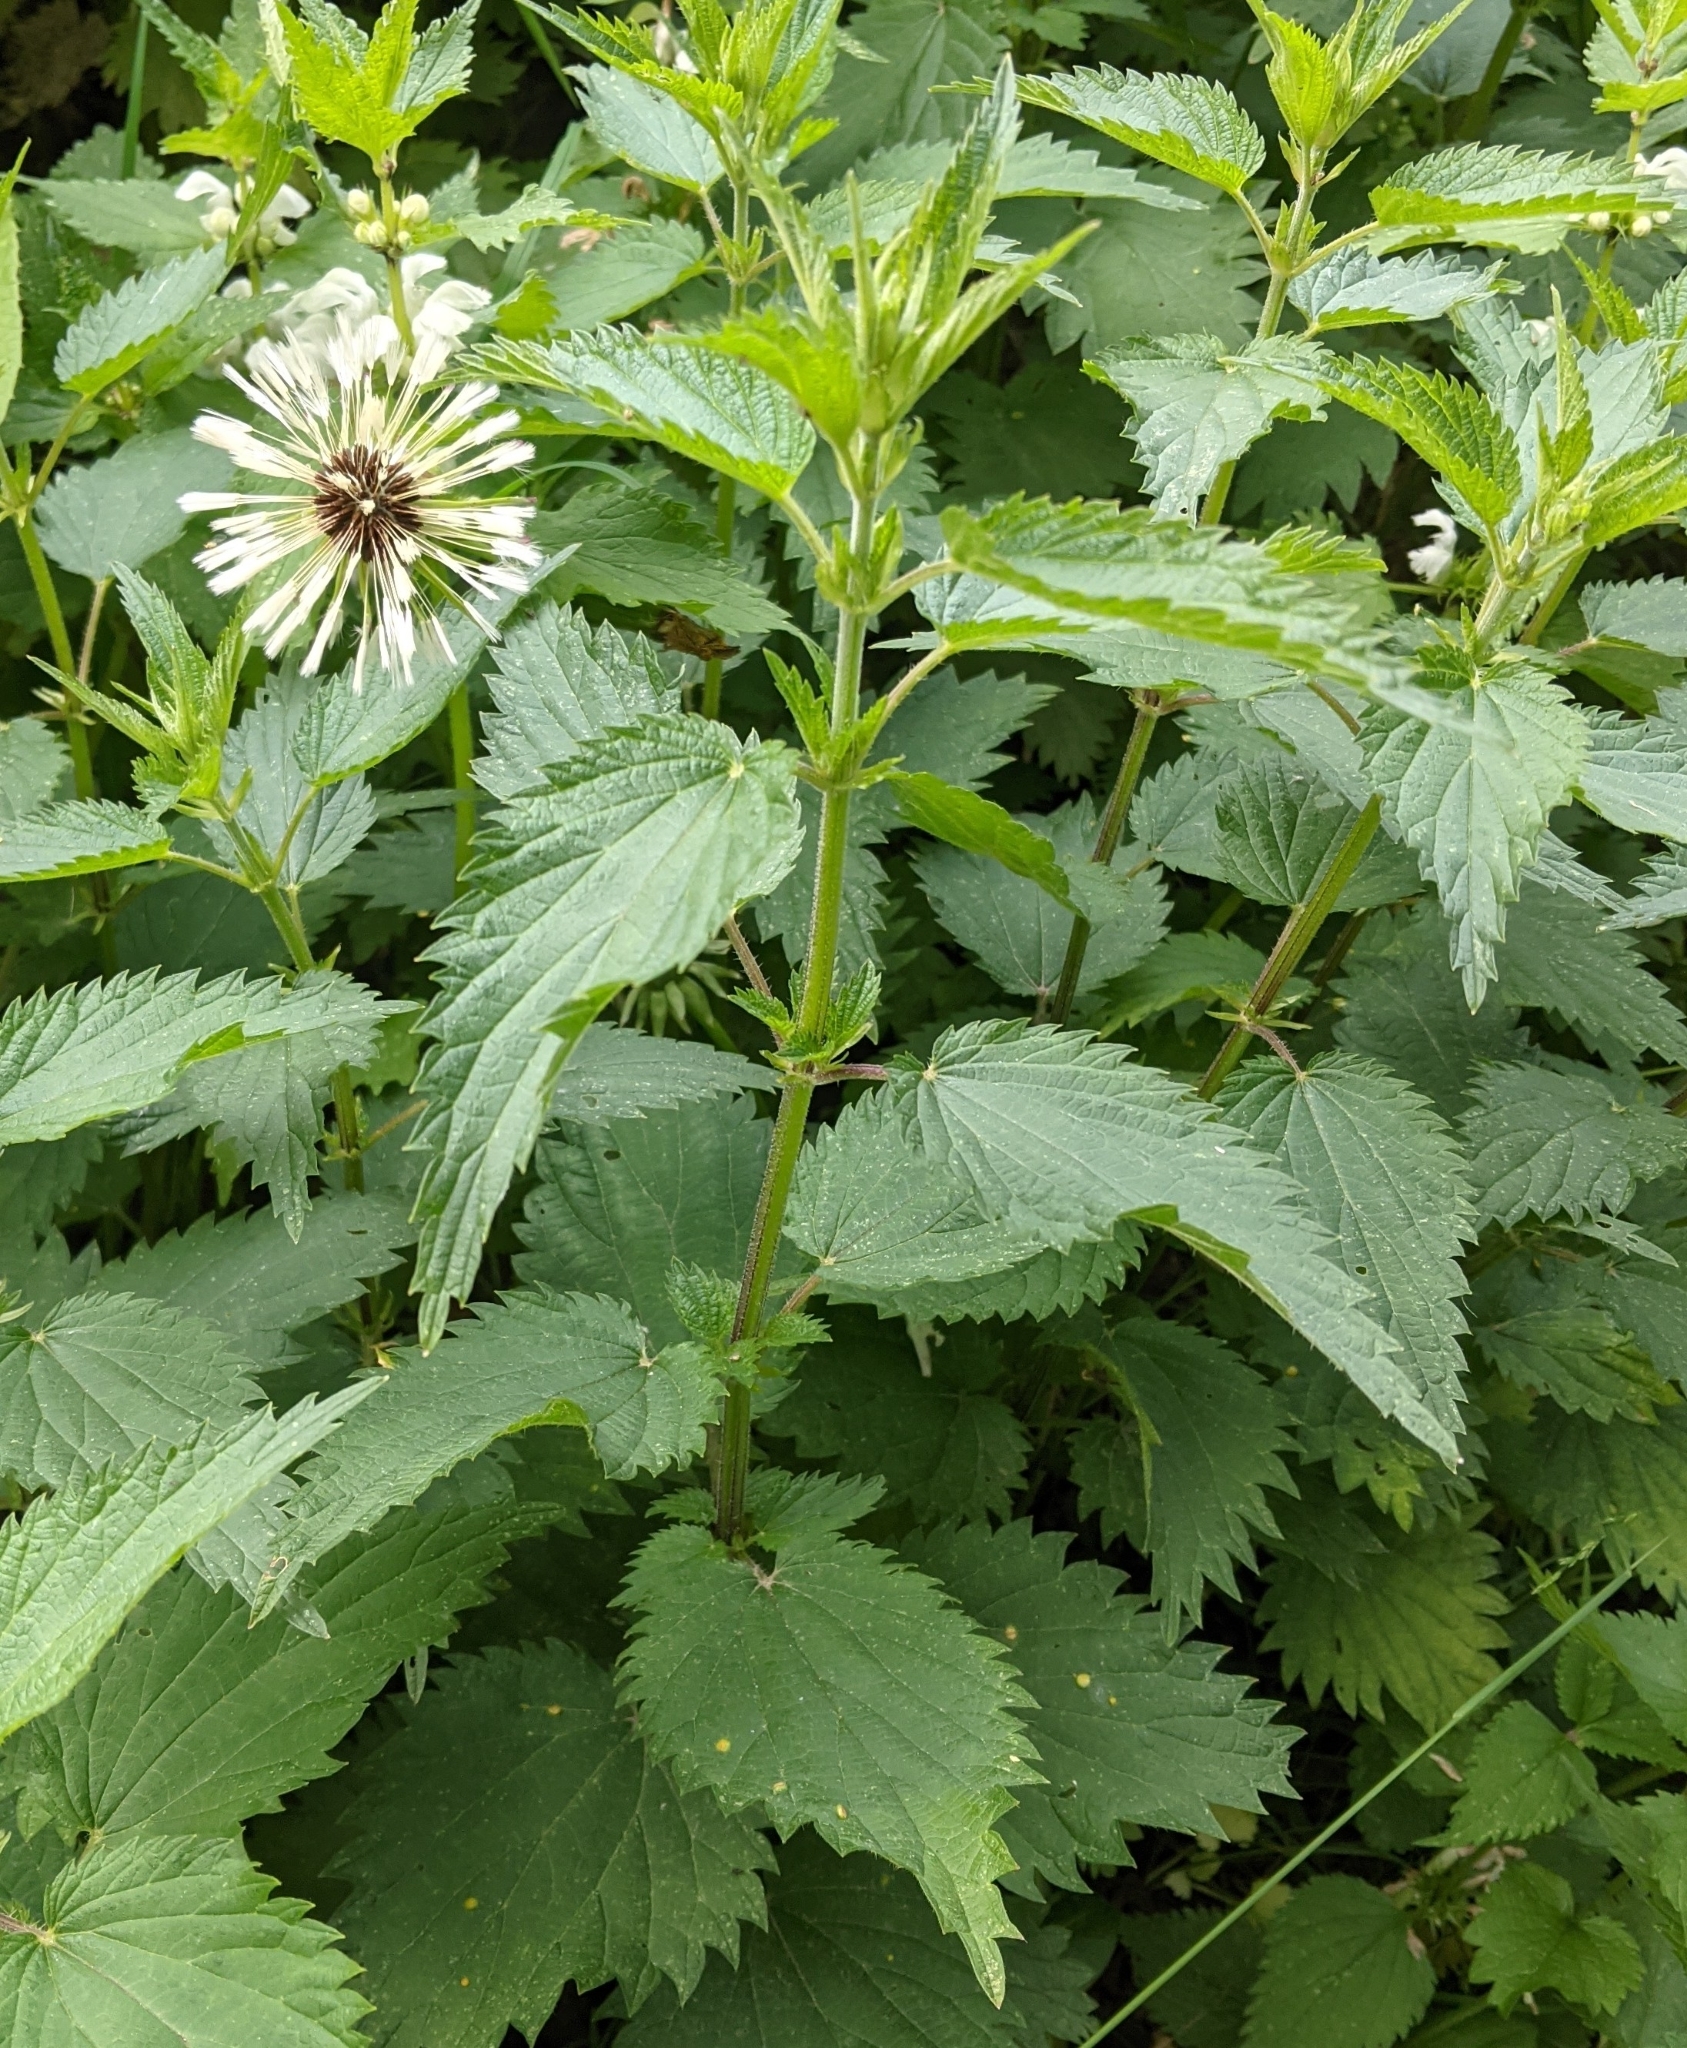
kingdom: Plantae
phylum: Tracheophyta
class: Magnoliopsida
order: Rosales
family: Urticaceae
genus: Urtica
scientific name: Urtica dioica
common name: Common nettle
